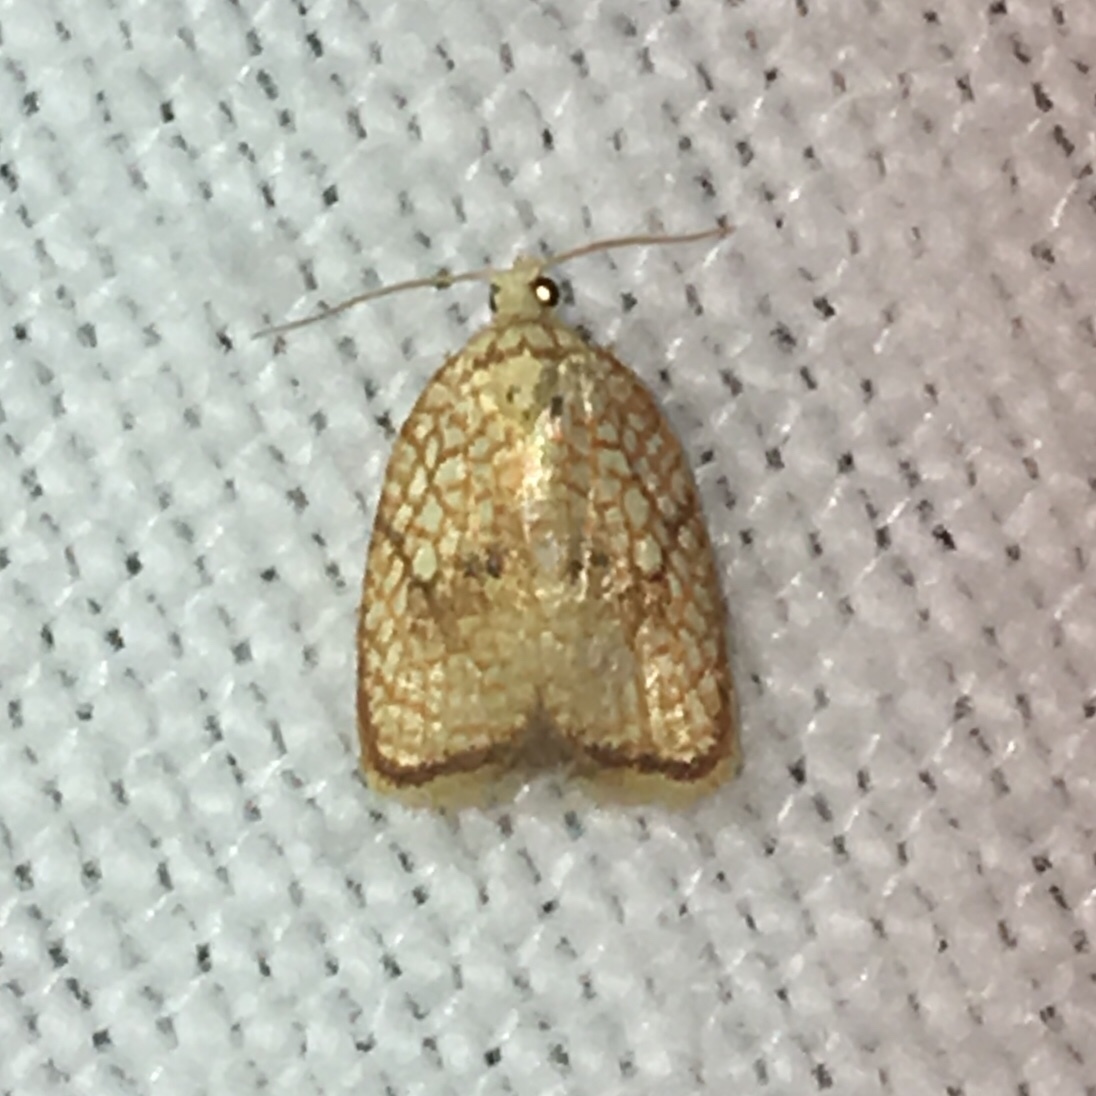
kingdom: Animalia
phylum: Arthropoda
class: Insecta
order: Lepidoptera
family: Tortricidae
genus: Acleris
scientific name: Acleris forsskaleana
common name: Maple button
